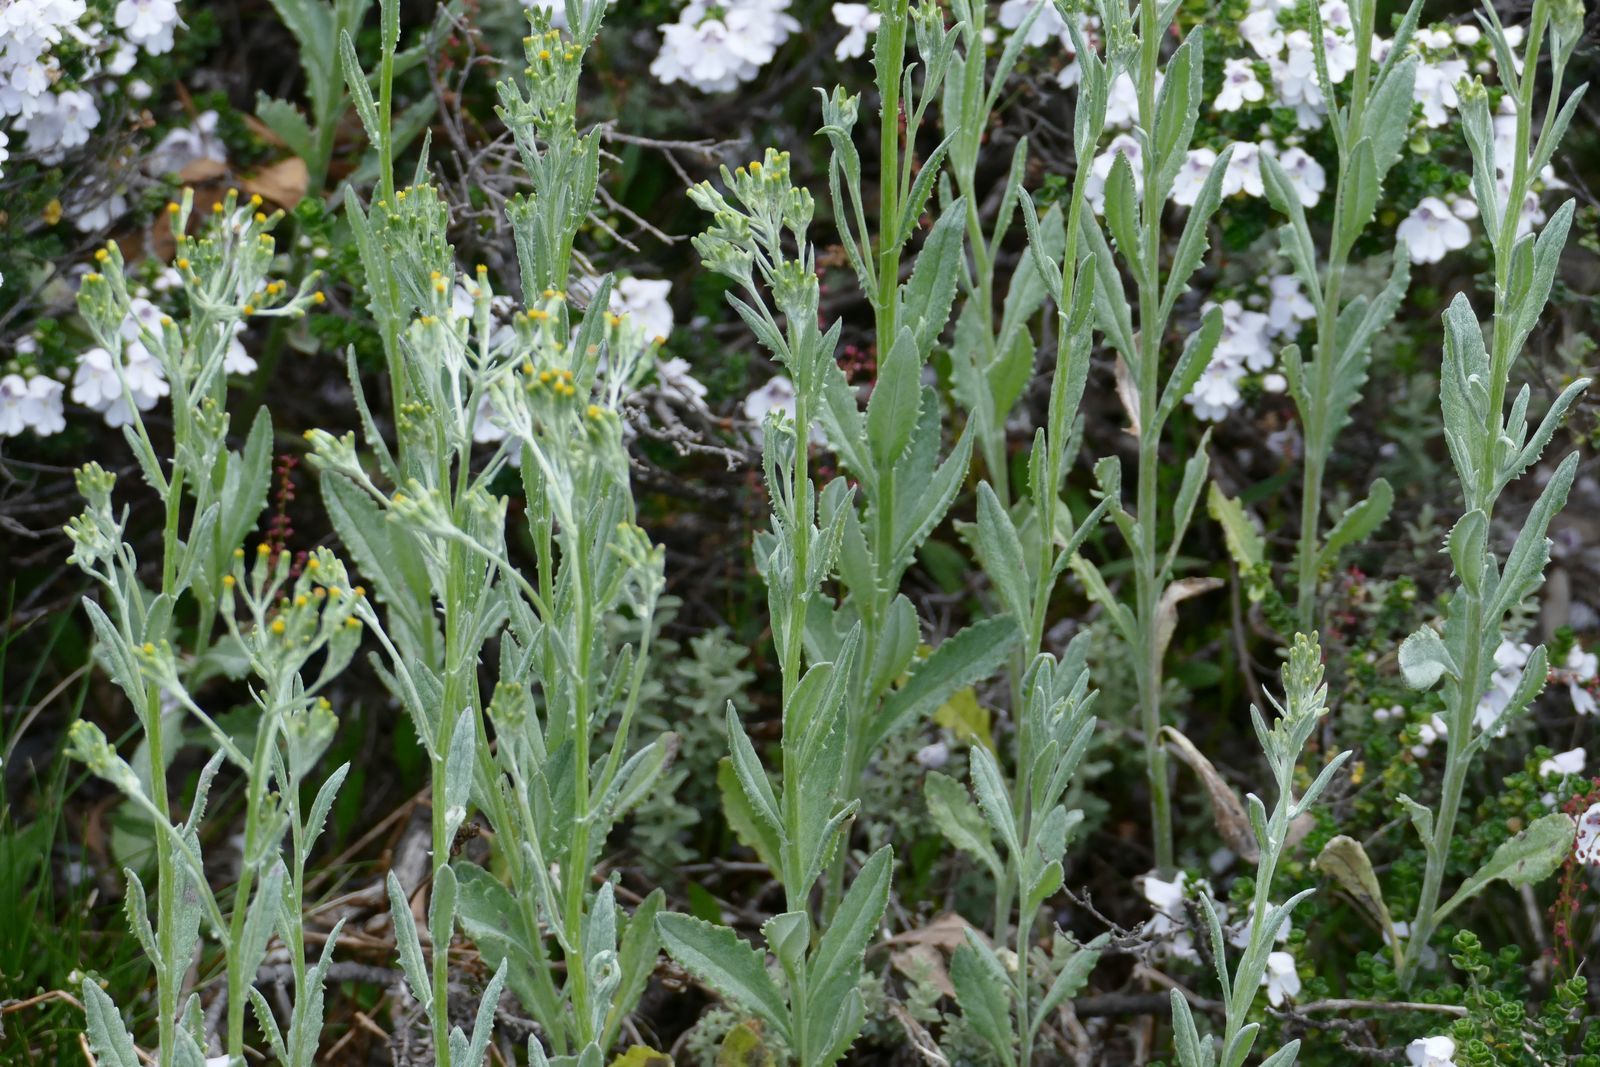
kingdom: Plantae
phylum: Tracheophyta
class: Magnoliopsida
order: Asterales
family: Asteraceae
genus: Senecio
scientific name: Senecio gunnii
